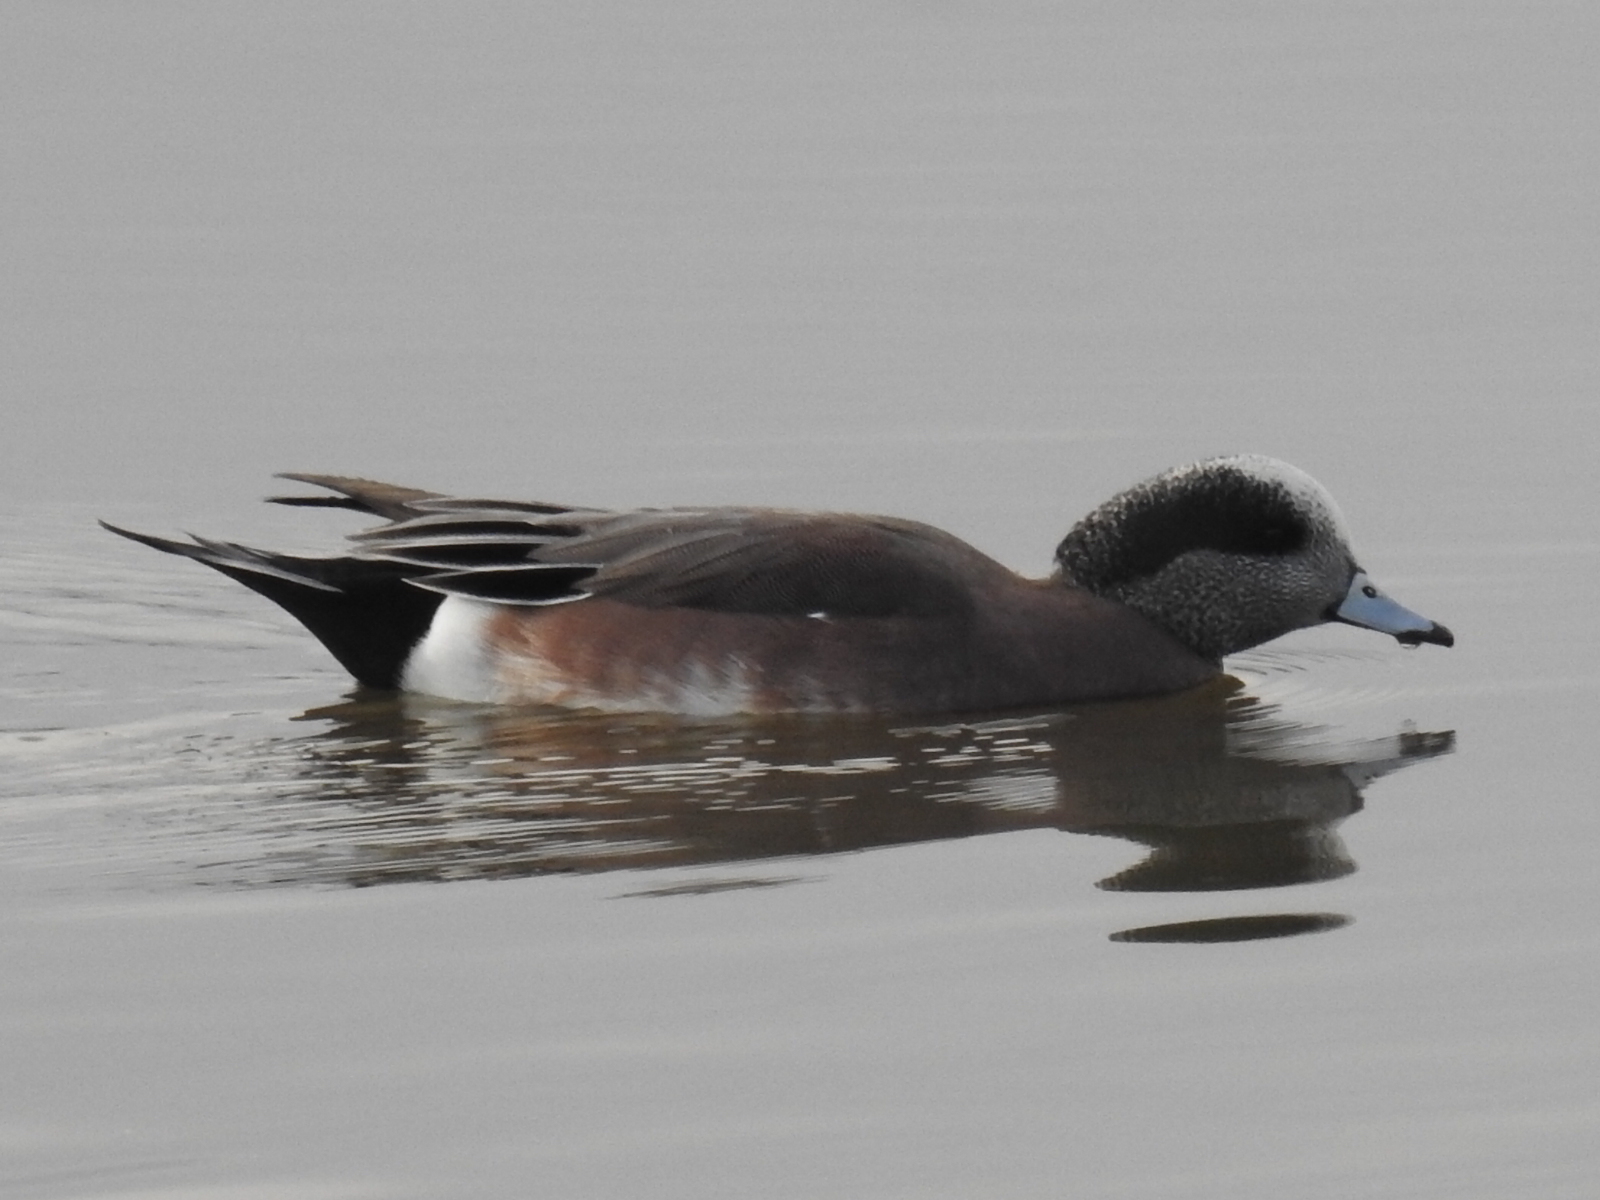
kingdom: Animalia
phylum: Chordata
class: Aves
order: Anseriformes
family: Anatidae
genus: Mareca
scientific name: Mareca americana
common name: American wigeon
